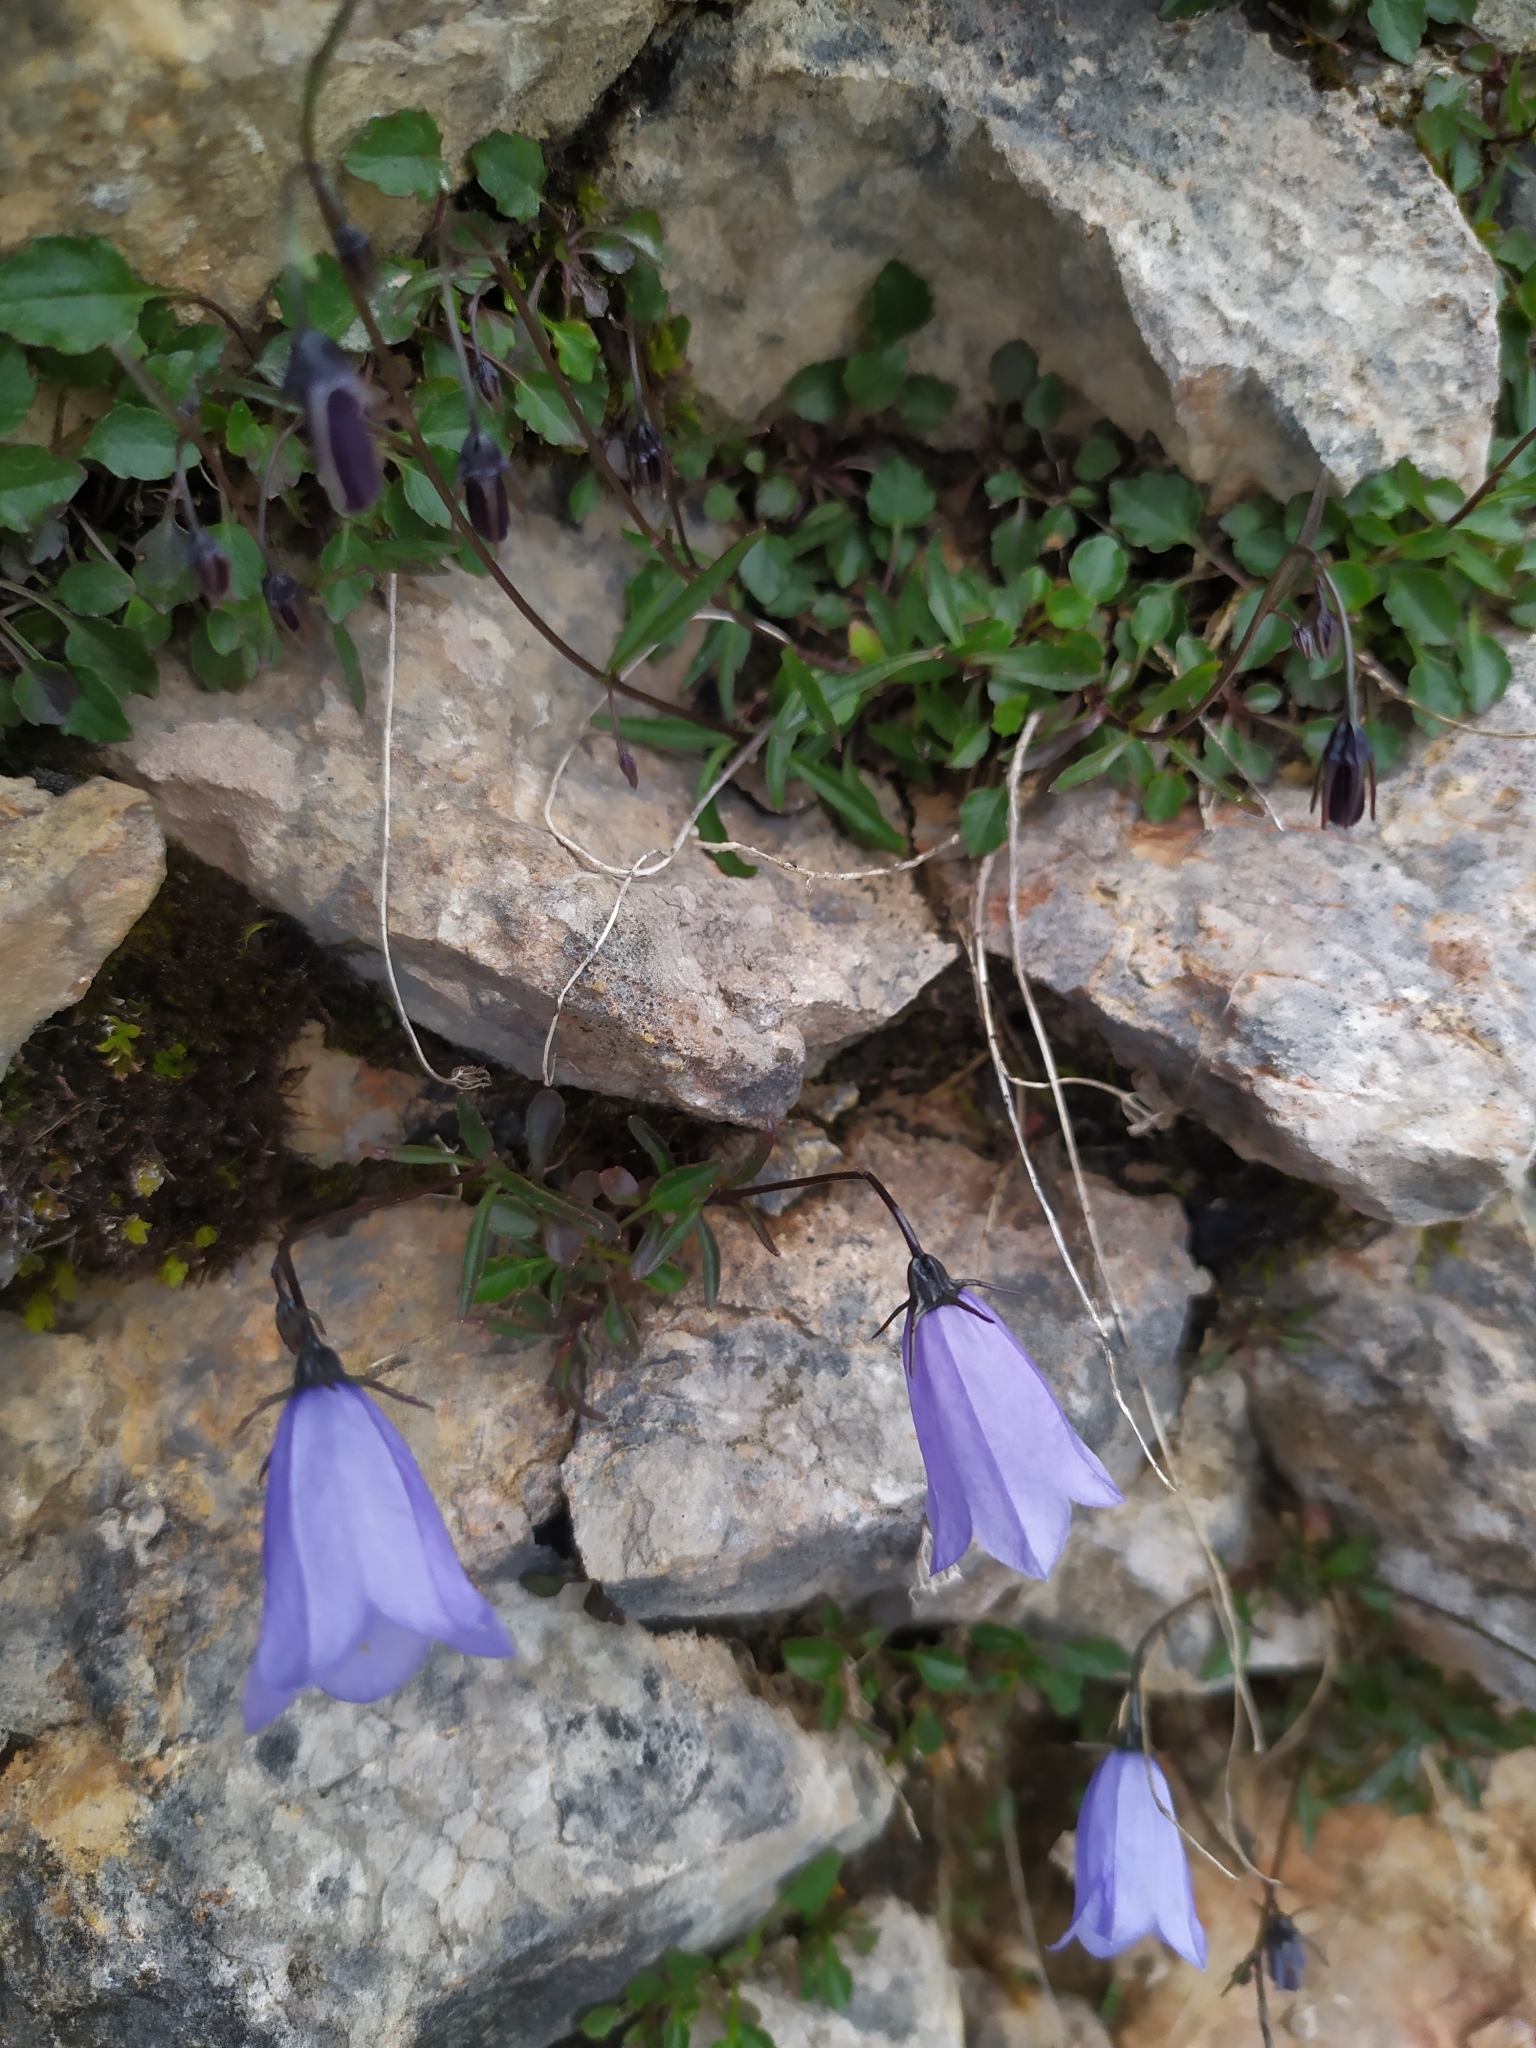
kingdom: Plantae
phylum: Tracheophyta
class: Magnoliopsida
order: Asterales
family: Campanulaceae
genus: Campanula
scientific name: Campanula cochleariifolia
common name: Fairies'-thimbles
